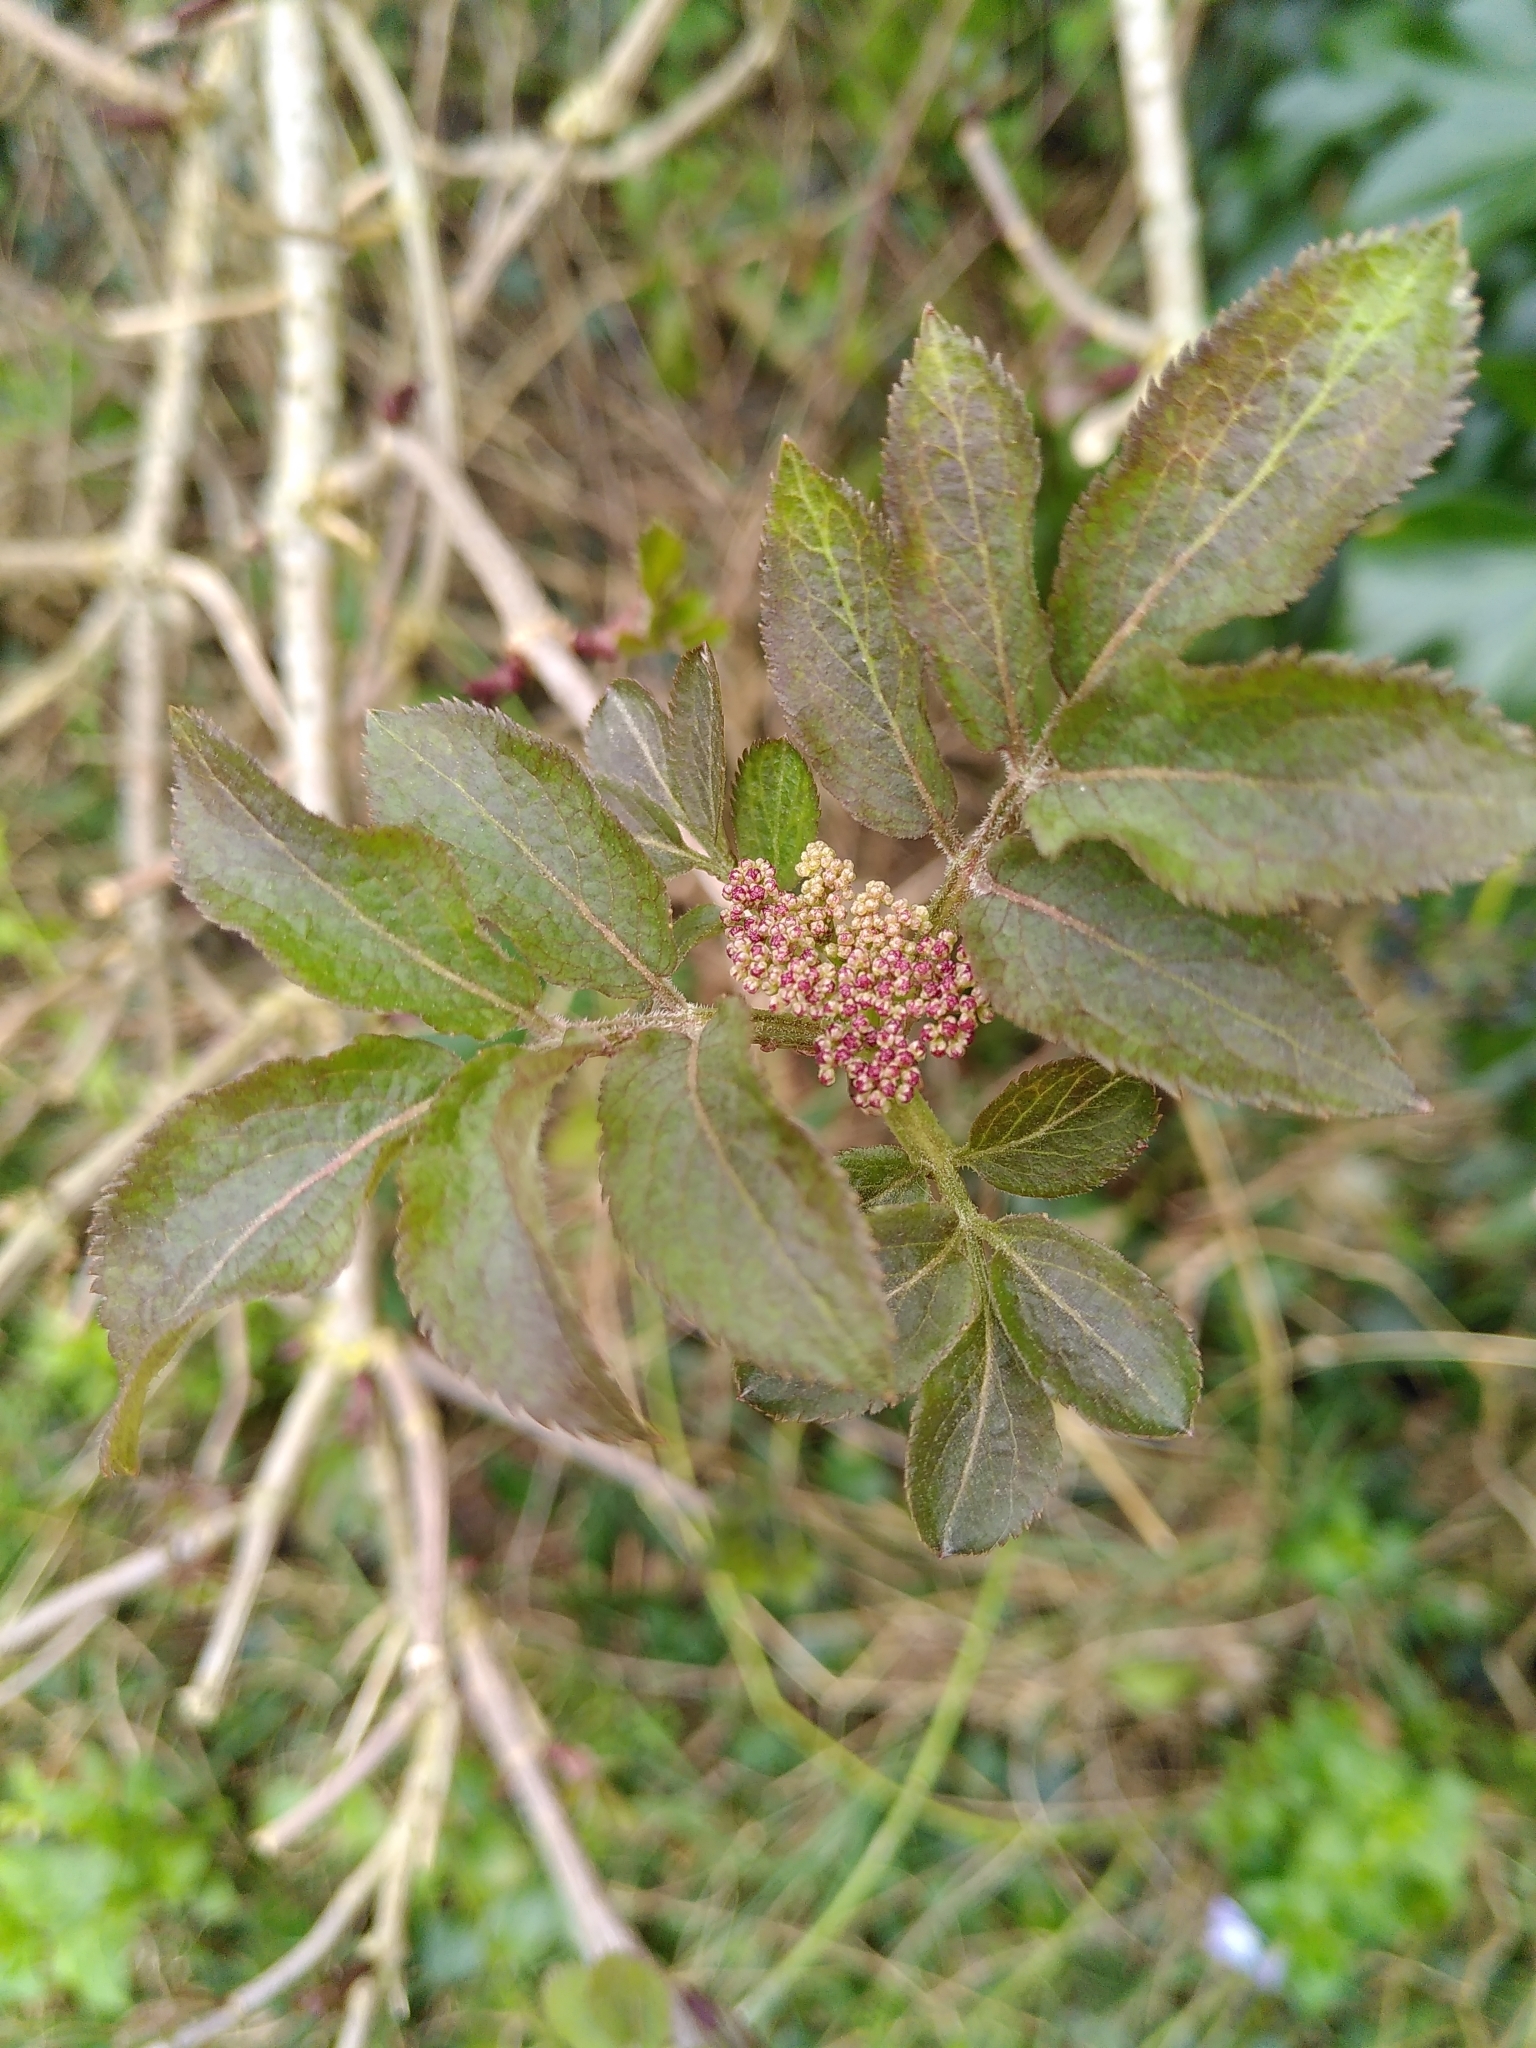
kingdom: Plantae
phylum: Tracheophyta
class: Magnoliopsida
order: Dipsacales
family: Viburnaceae
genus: Sambucus
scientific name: Sambucus nigra
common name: Elder
